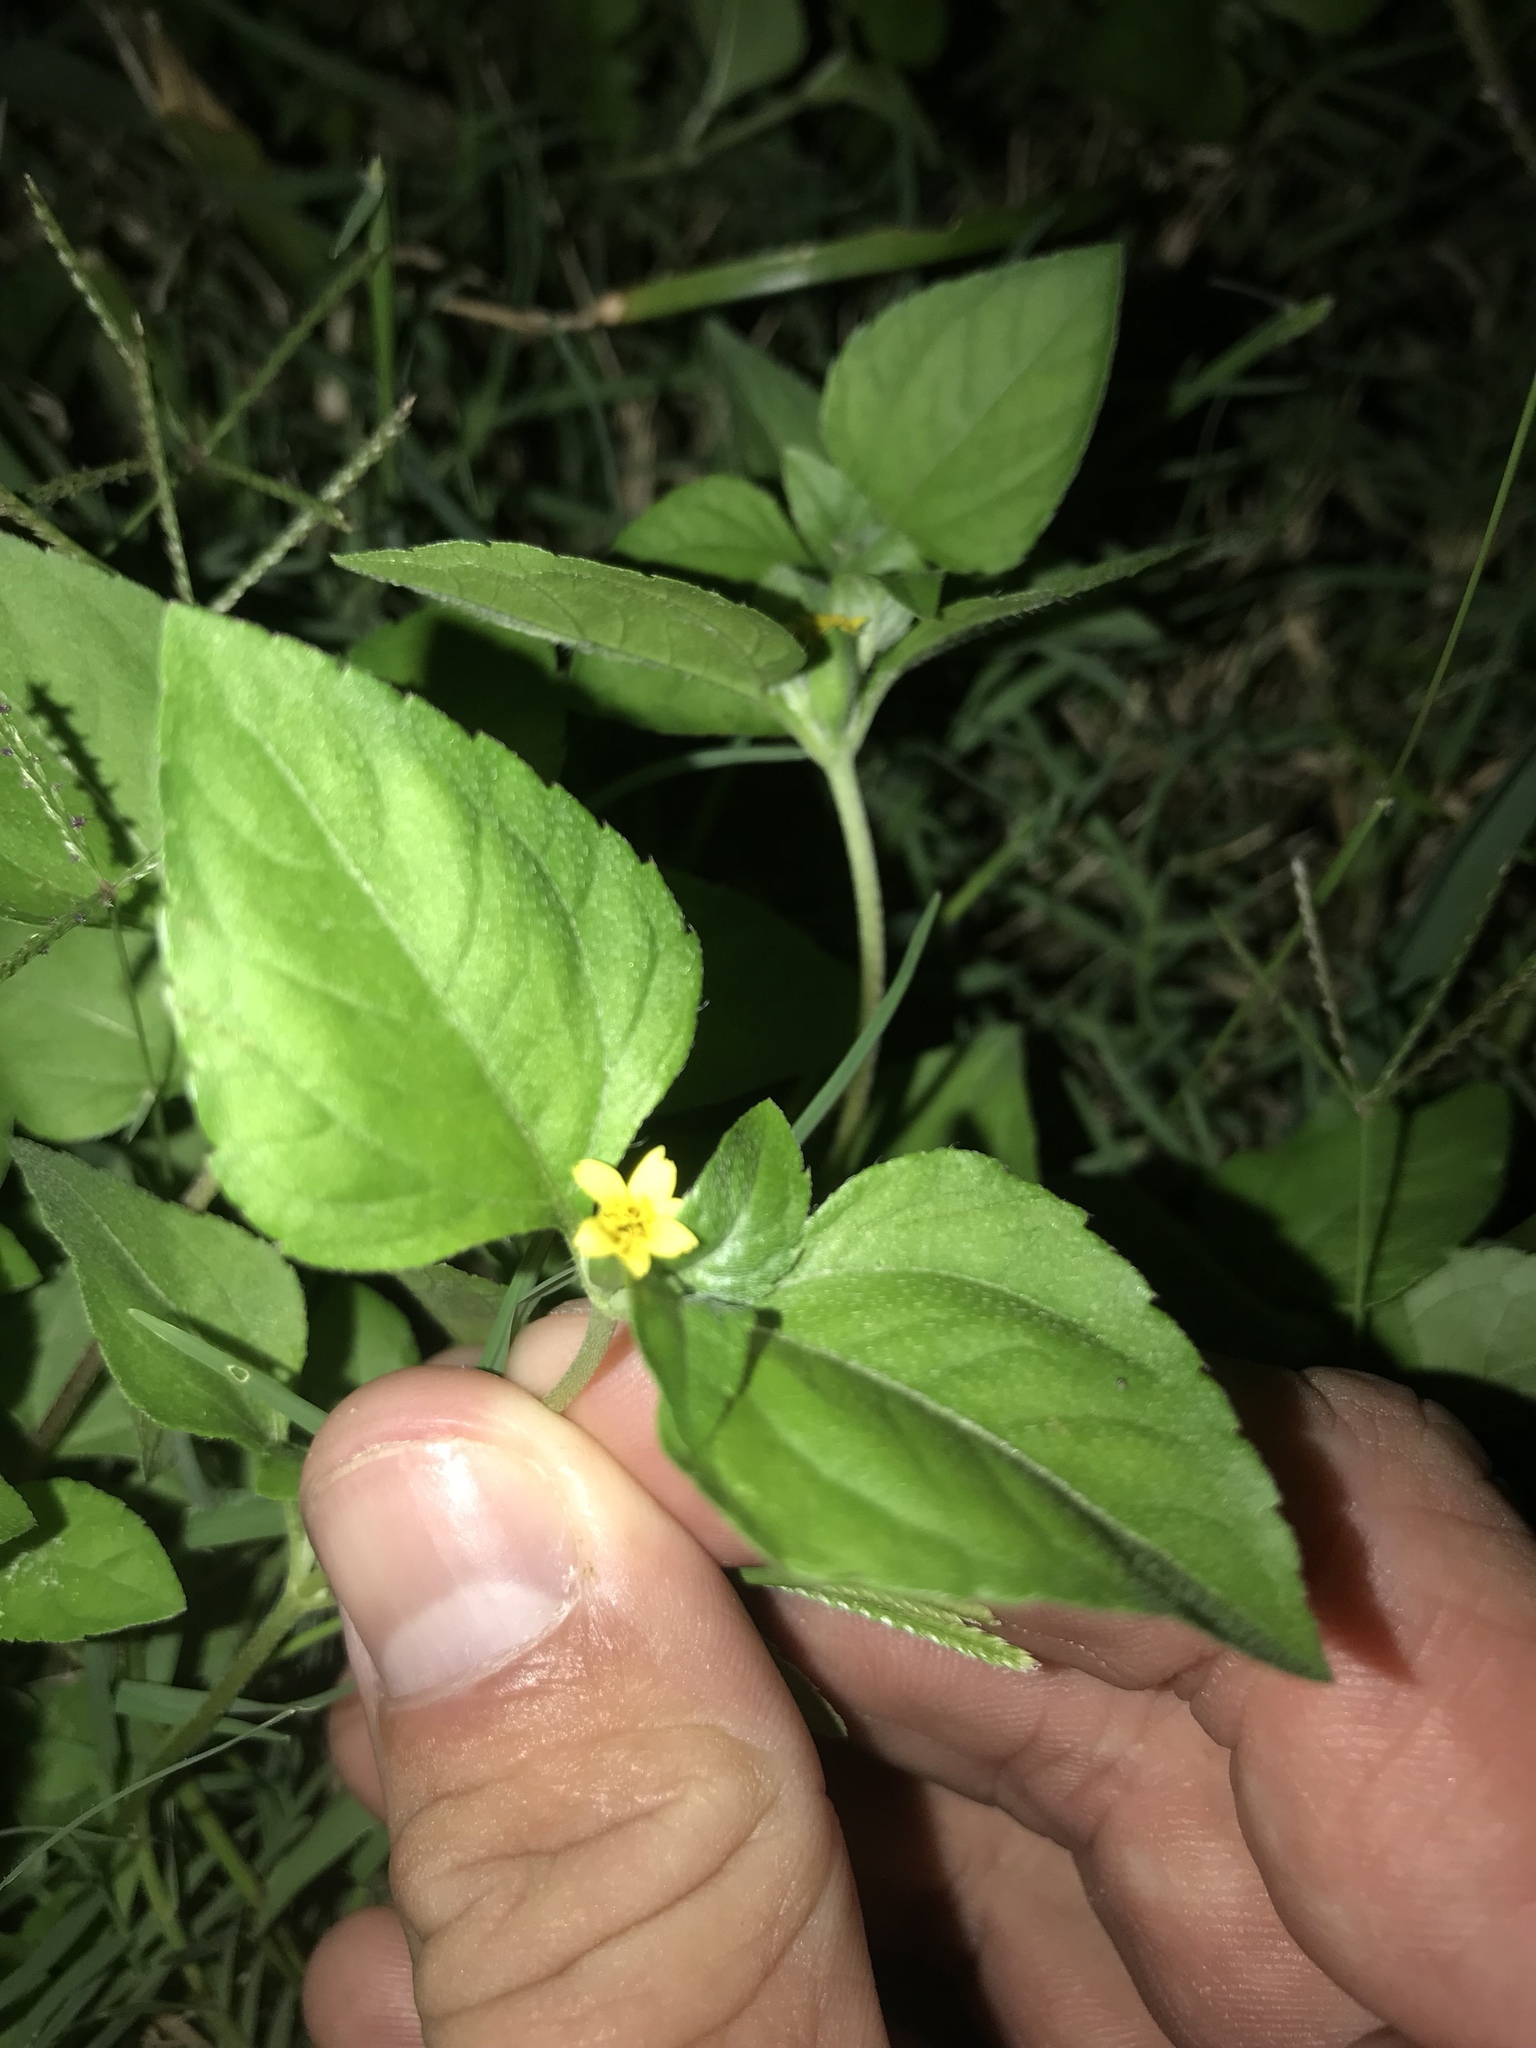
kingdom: Plantae
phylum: Tracheophyta
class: Magnoliopsida
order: Asterales
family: Asteraceae
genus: Calyptocarpus
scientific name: Calyptocarpus vialis
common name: Straggler daisy
